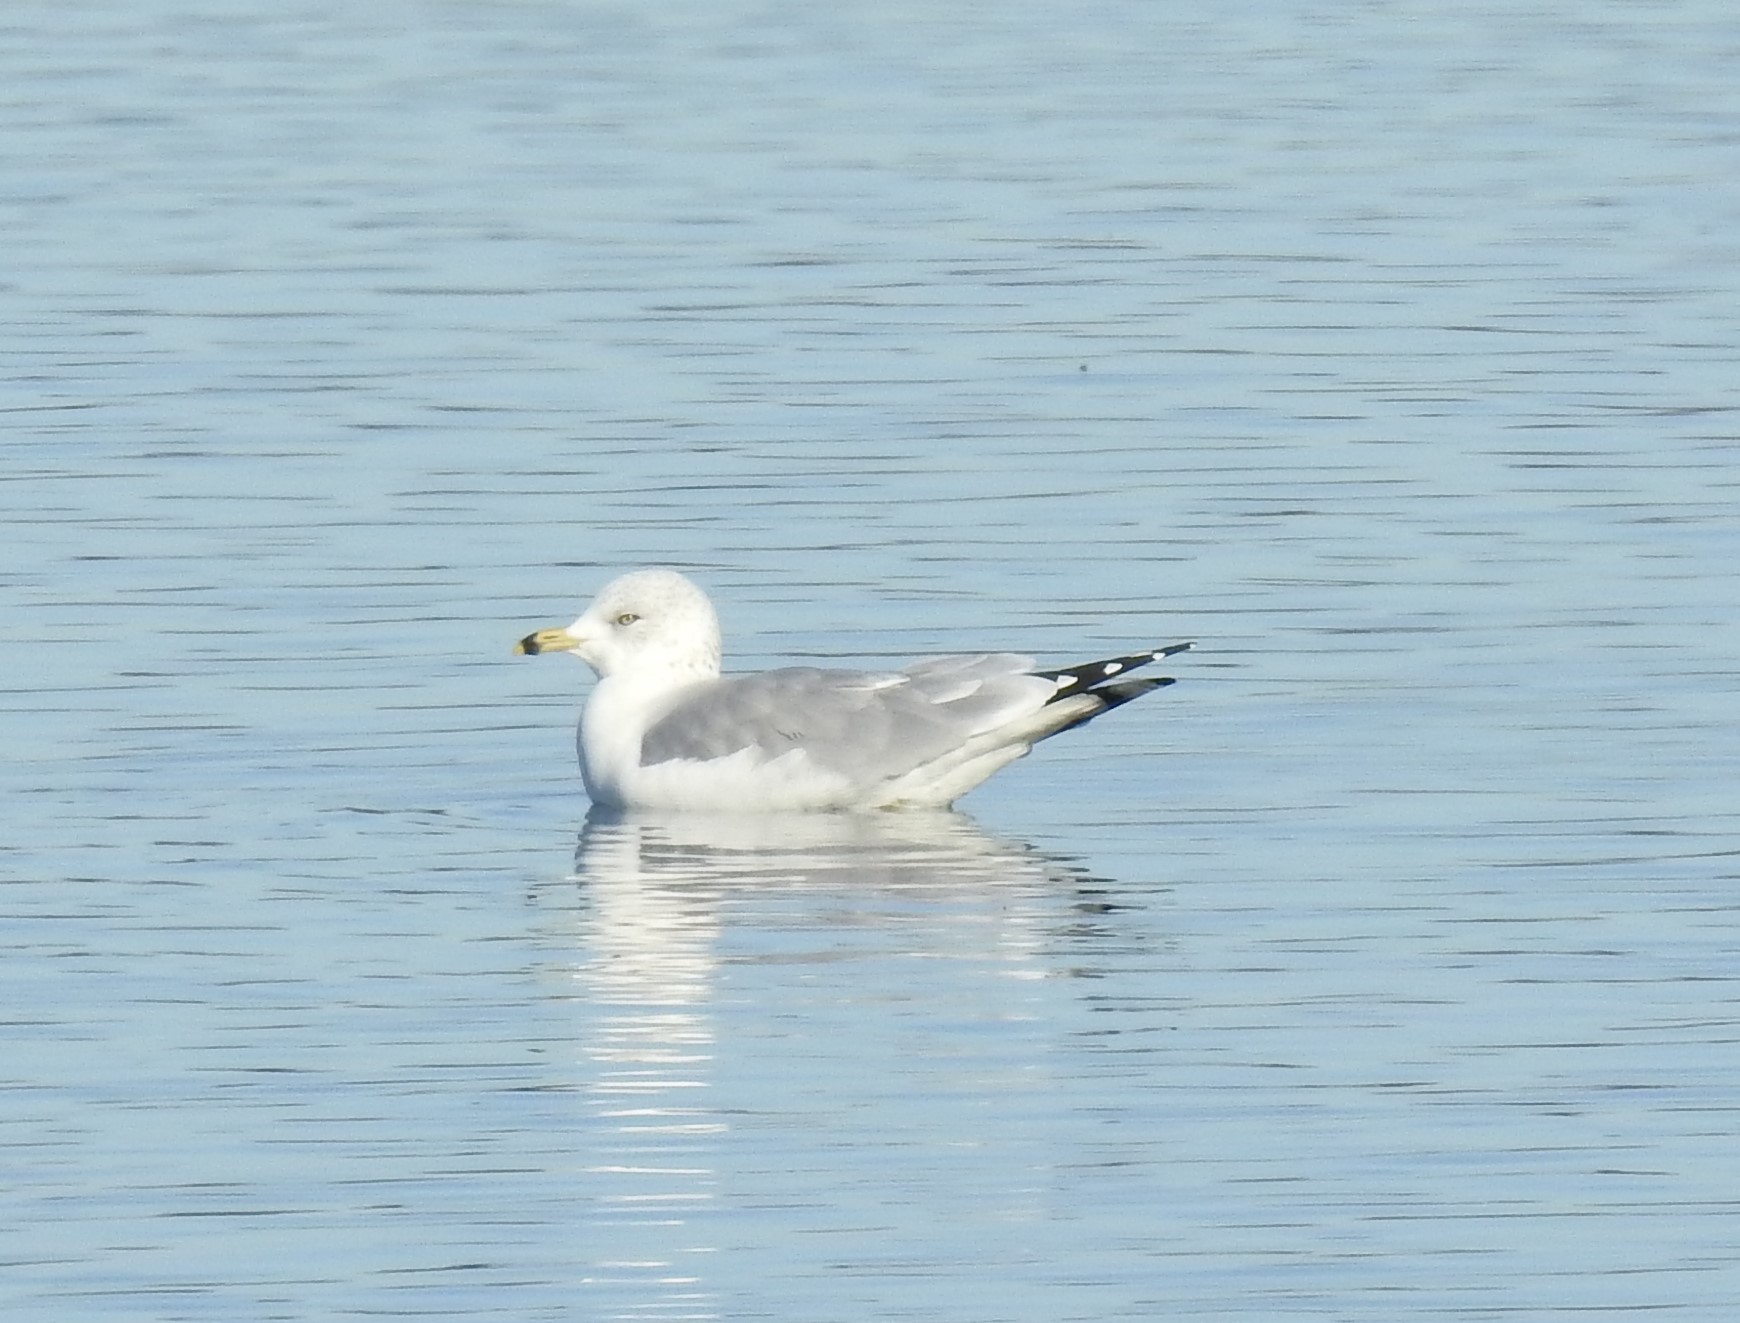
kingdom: Animalia
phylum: Chordata
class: Aves
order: Charadriiformes
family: Laridae
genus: Larus
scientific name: Larus delawarensis
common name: Ring-billed gull
